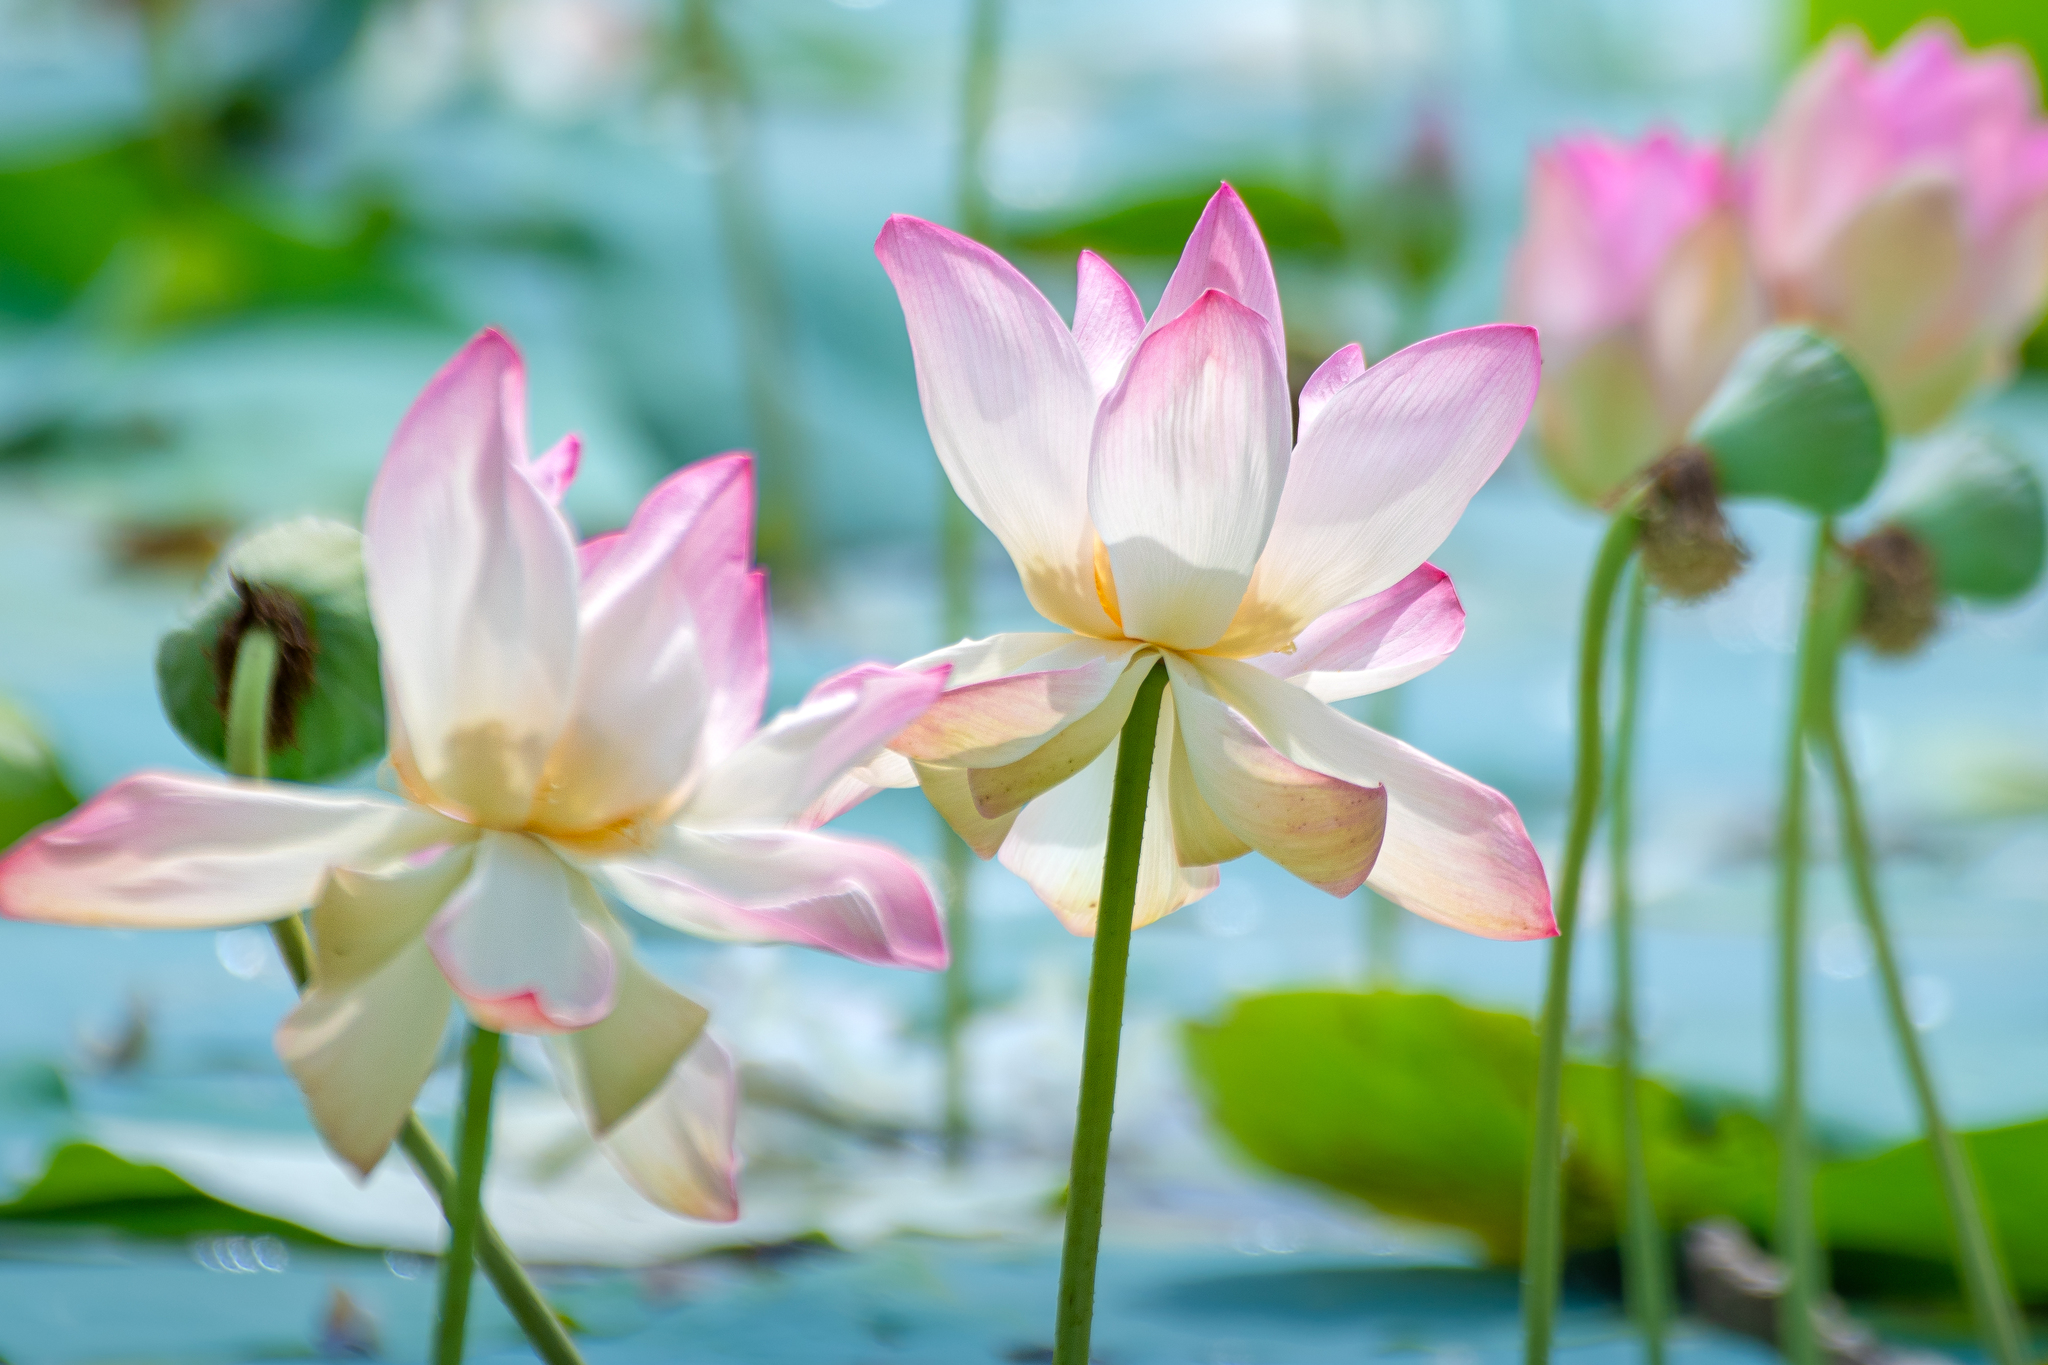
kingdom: Plantae
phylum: Tracheophyta
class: Magnoliopsida
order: Proteales
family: Nelumbonaceae
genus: Nelumbo
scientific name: Nelumbo nucifera
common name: Sacred lotus
